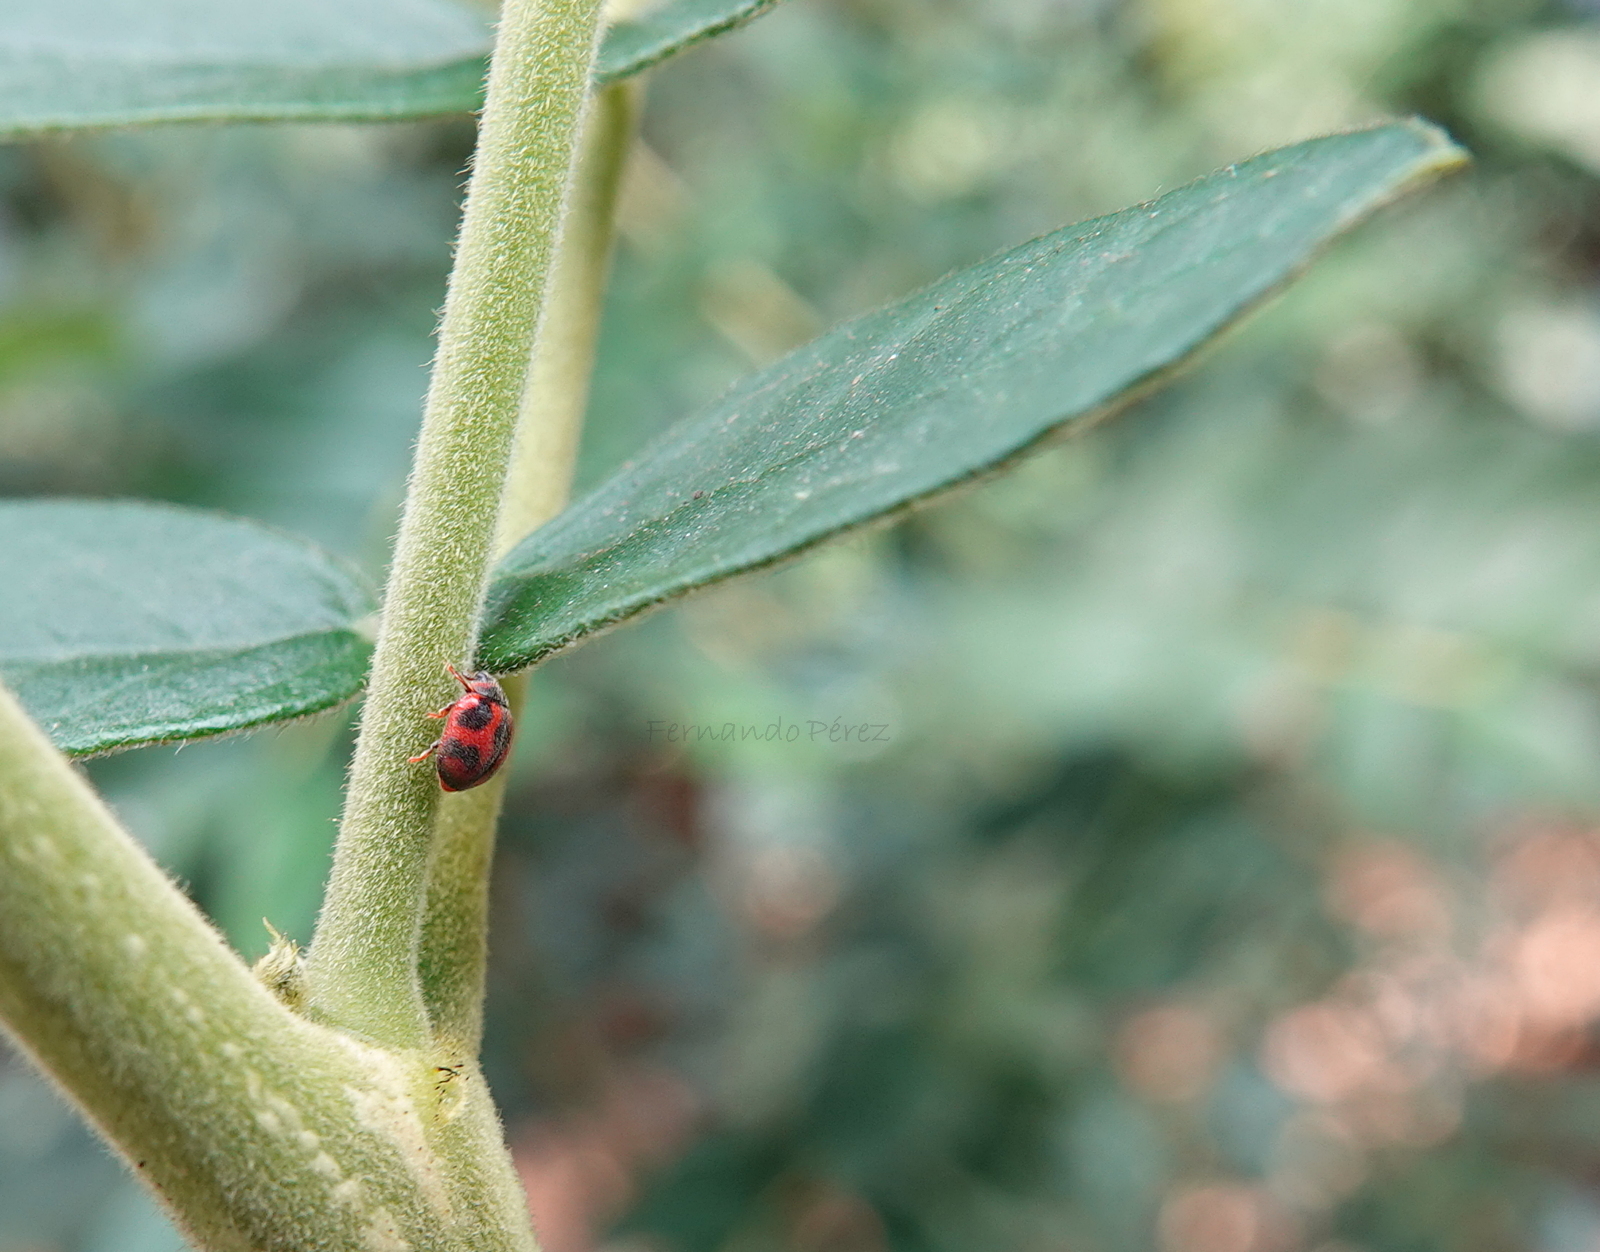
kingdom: Animalia
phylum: Arthropoda
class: Insecta
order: Coleoptera
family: Coccinellidae
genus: Novius
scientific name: Novius cardinalis
